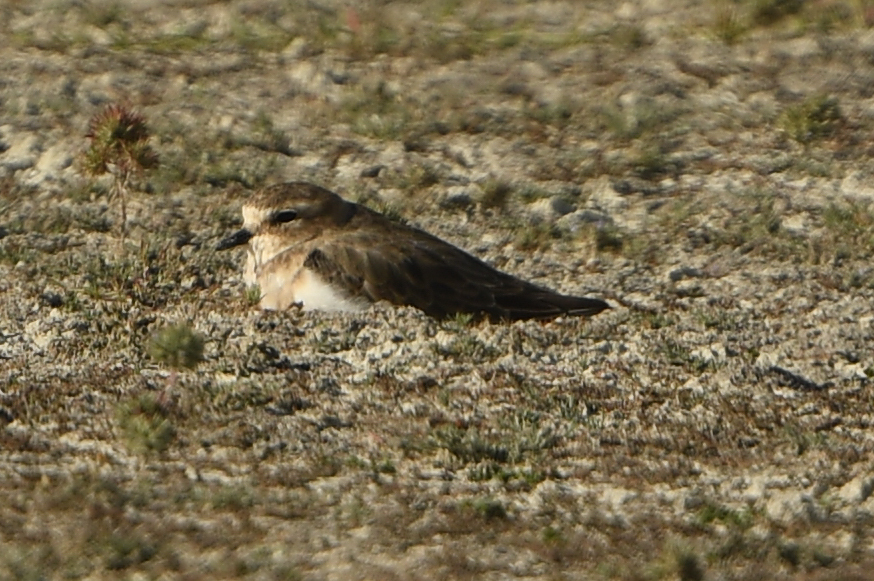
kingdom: Animalia
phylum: Chordata
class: Aves
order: Charadriiformes
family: Charadriidae
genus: Anarhynchus
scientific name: Anarhynchus
